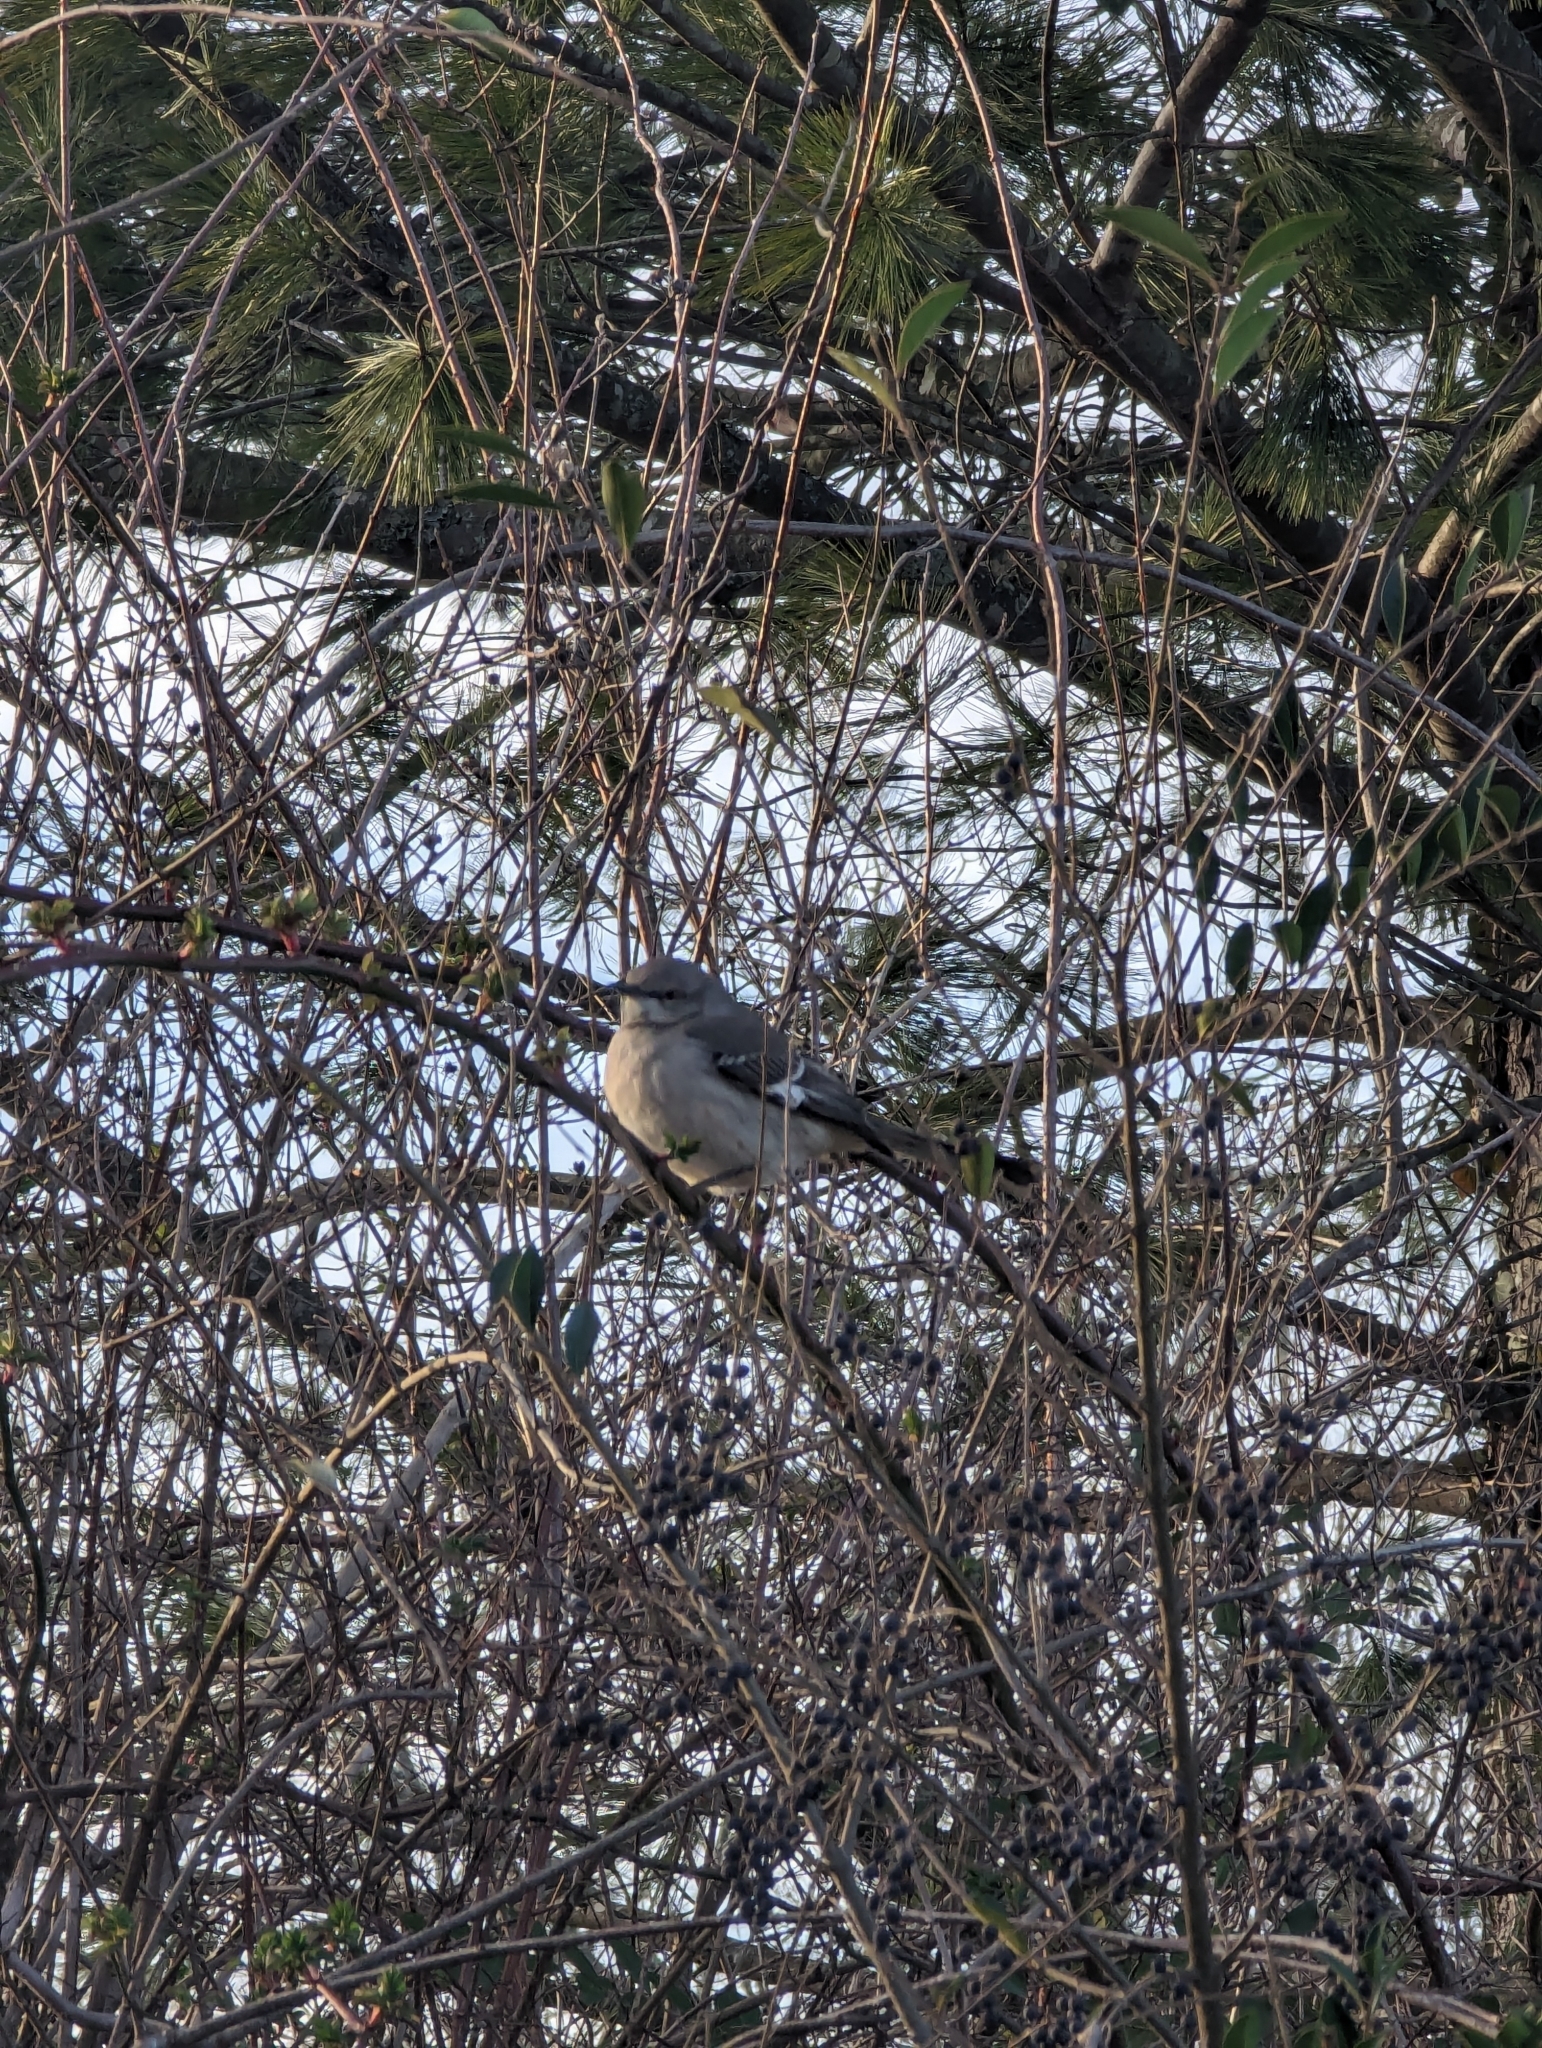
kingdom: Animalia
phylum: Chordata
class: Aves
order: Passeriformes
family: Mimidae
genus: Mimus
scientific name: Mimus polyglottos
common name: Northern mockingbird
